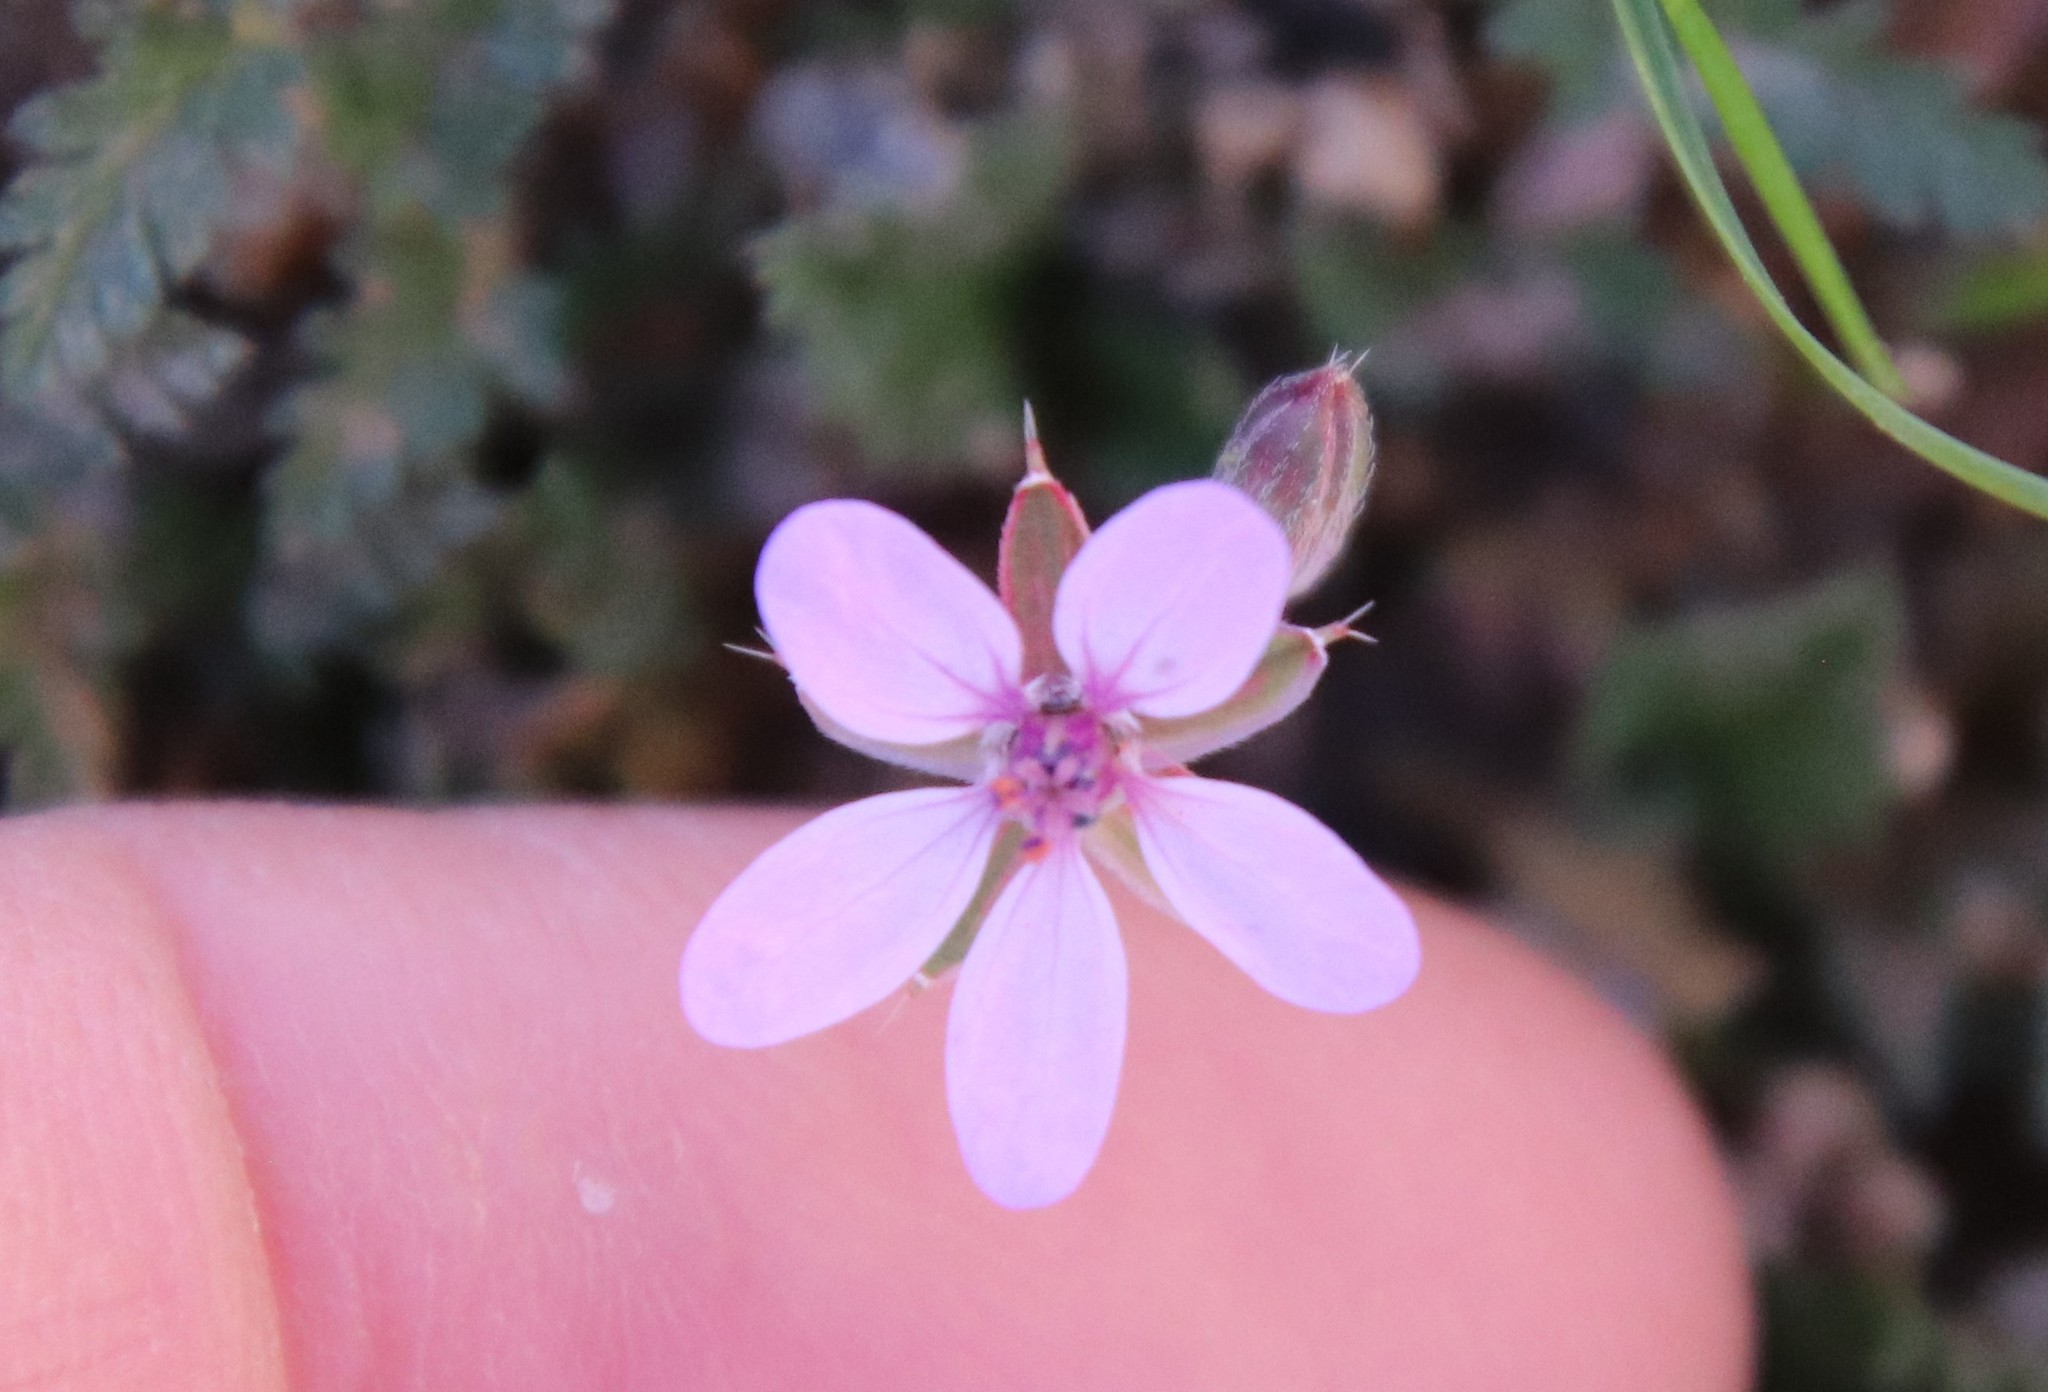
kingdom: Plantae
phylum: Tracheophyta
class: Magnoliopsida
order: Geraniales
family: Geraniaceae
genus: Erodium
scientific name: Erodium cicutarium
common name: Common stork's-bill
